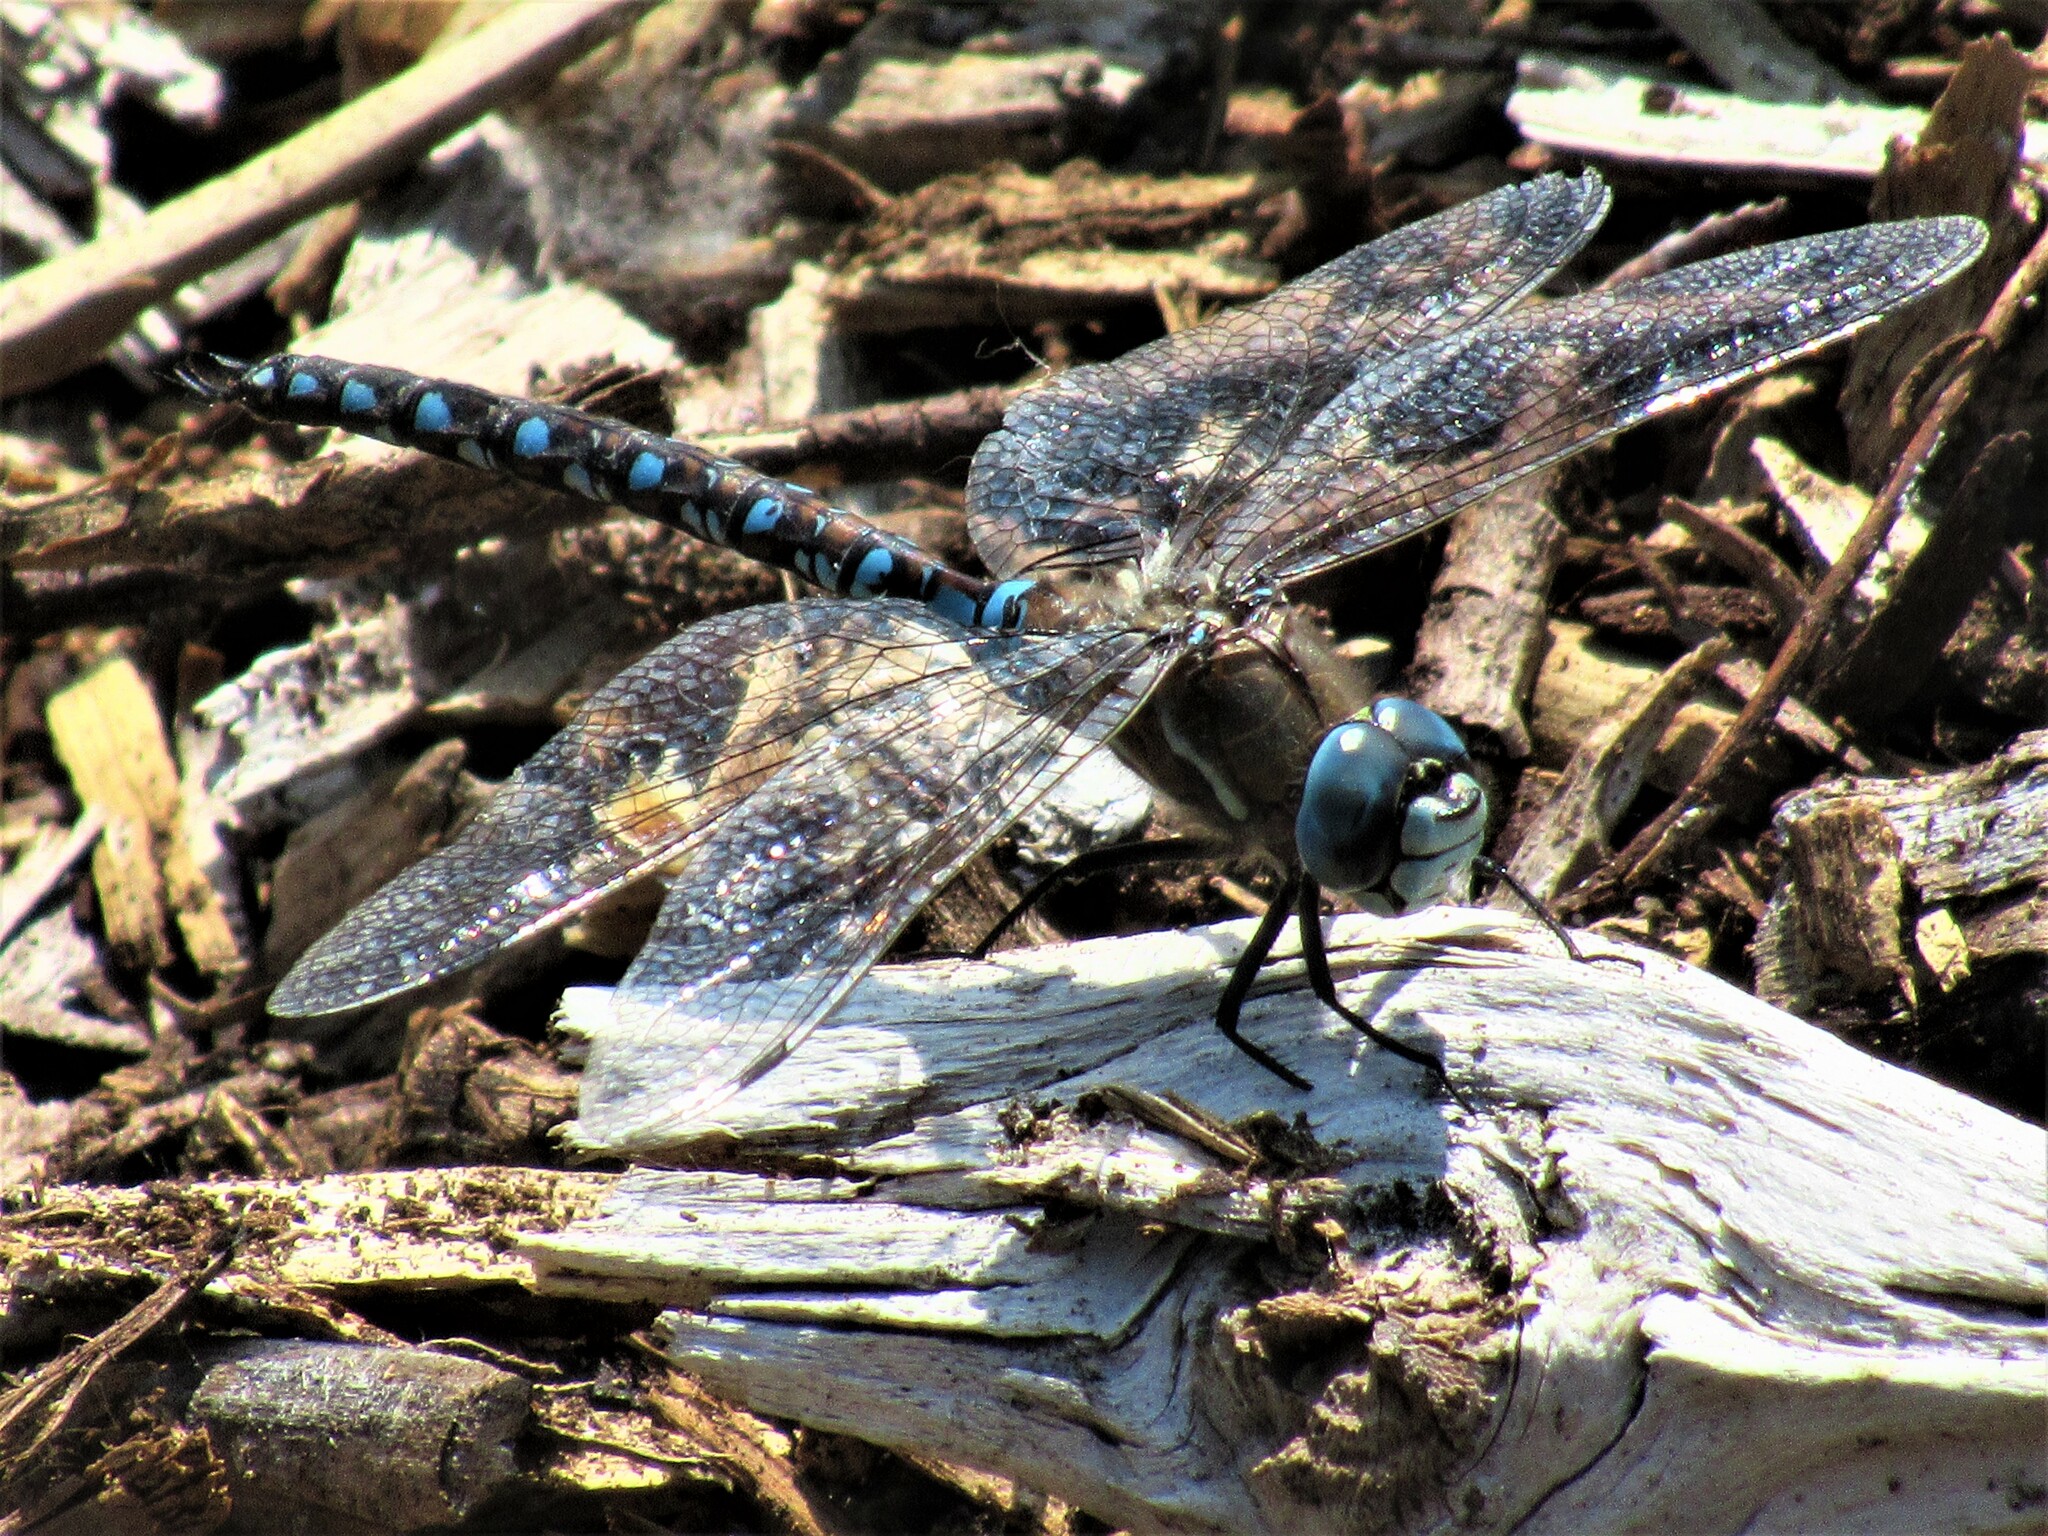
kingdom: Animalia
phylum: Arthropoda
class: Insecta
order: Odonata
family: Aeshnidae
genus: Rhionaeschna
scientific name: Rhionaeschna californica
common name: California darner
